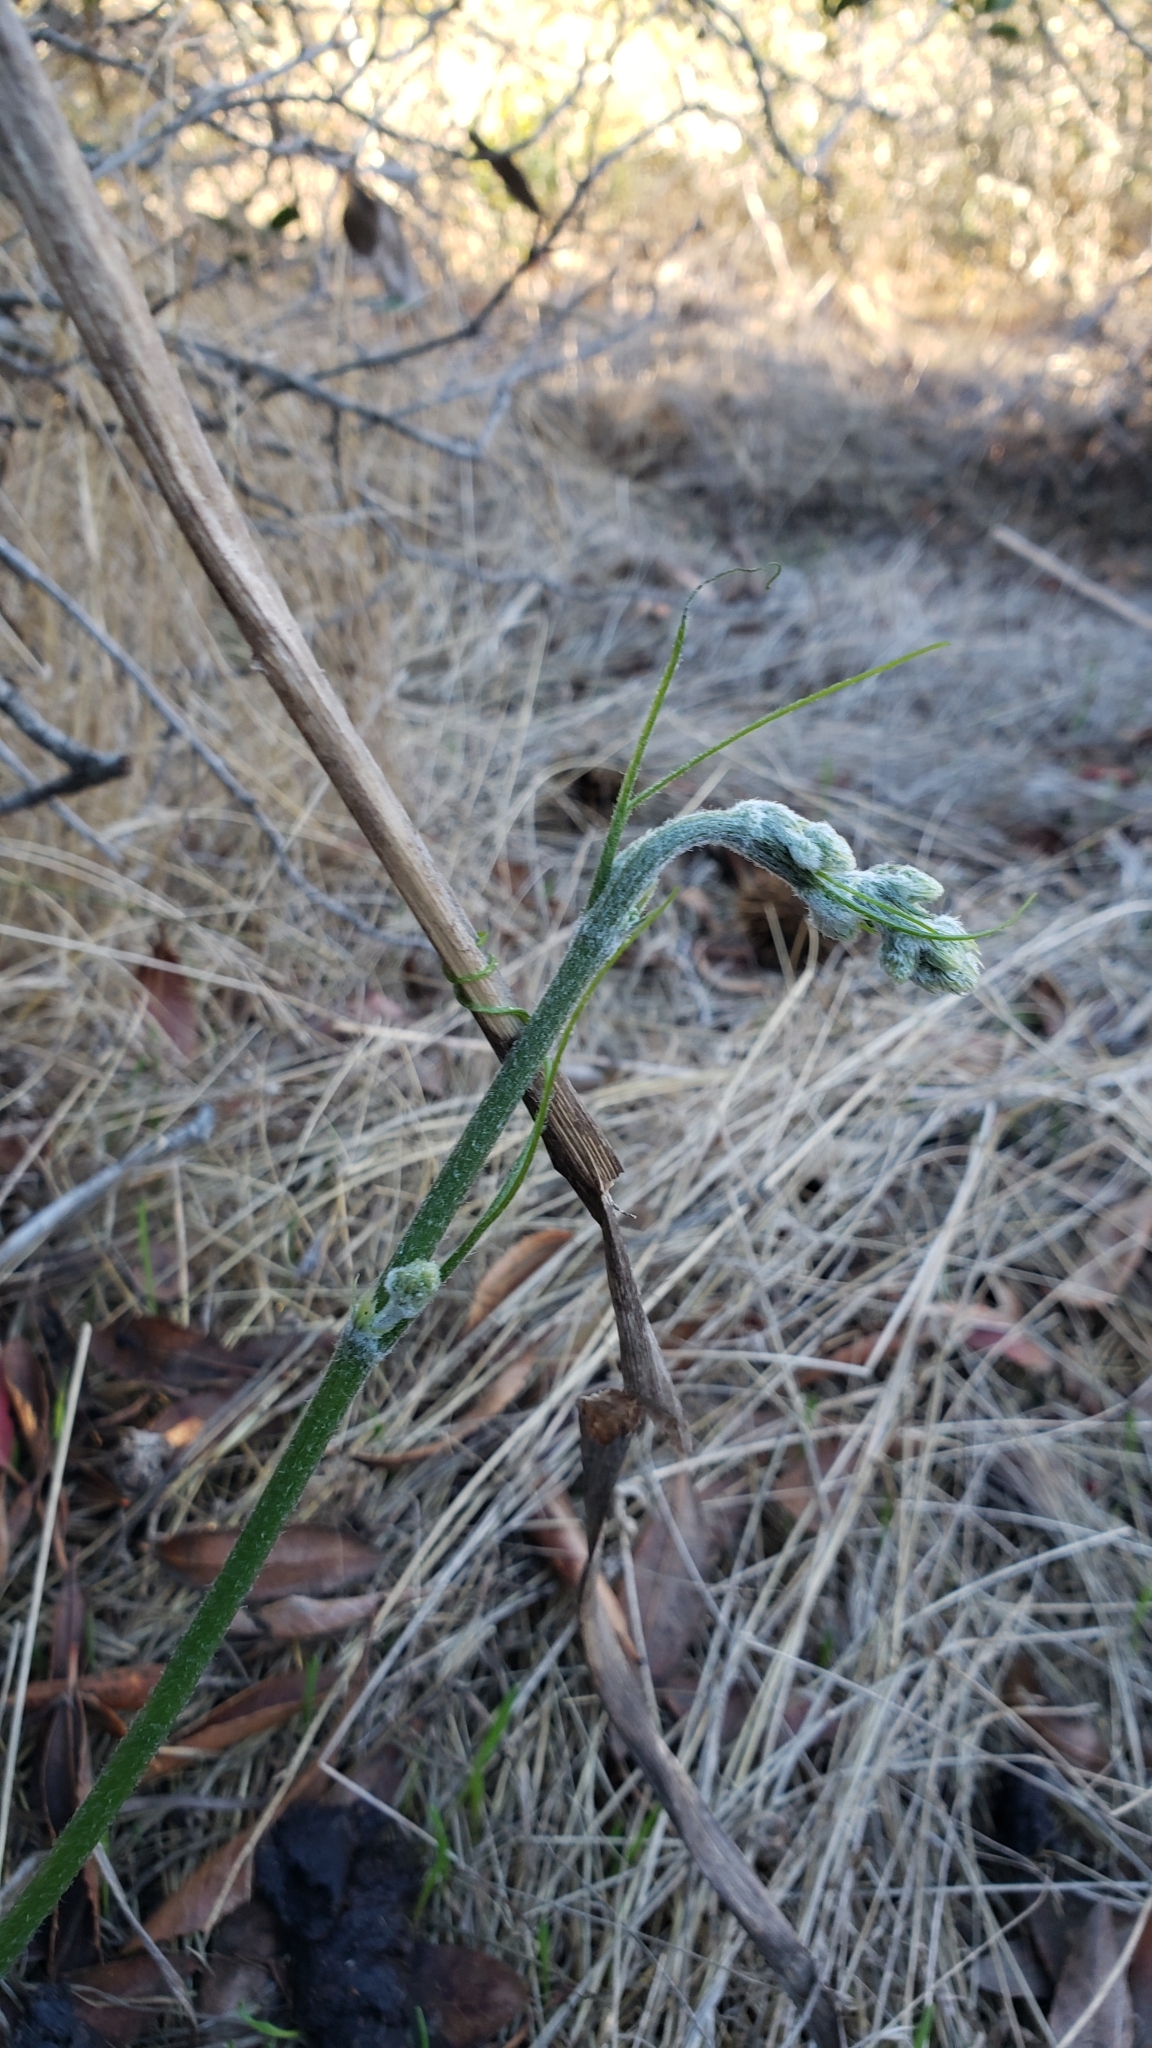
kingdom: Plantae
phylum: Tracheophyta
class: Magnoliopsida
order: Cucurbitales
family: Cucurbitaceae
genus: Marah
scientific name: Marah macrocarpa
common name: Cucamonga manroot
